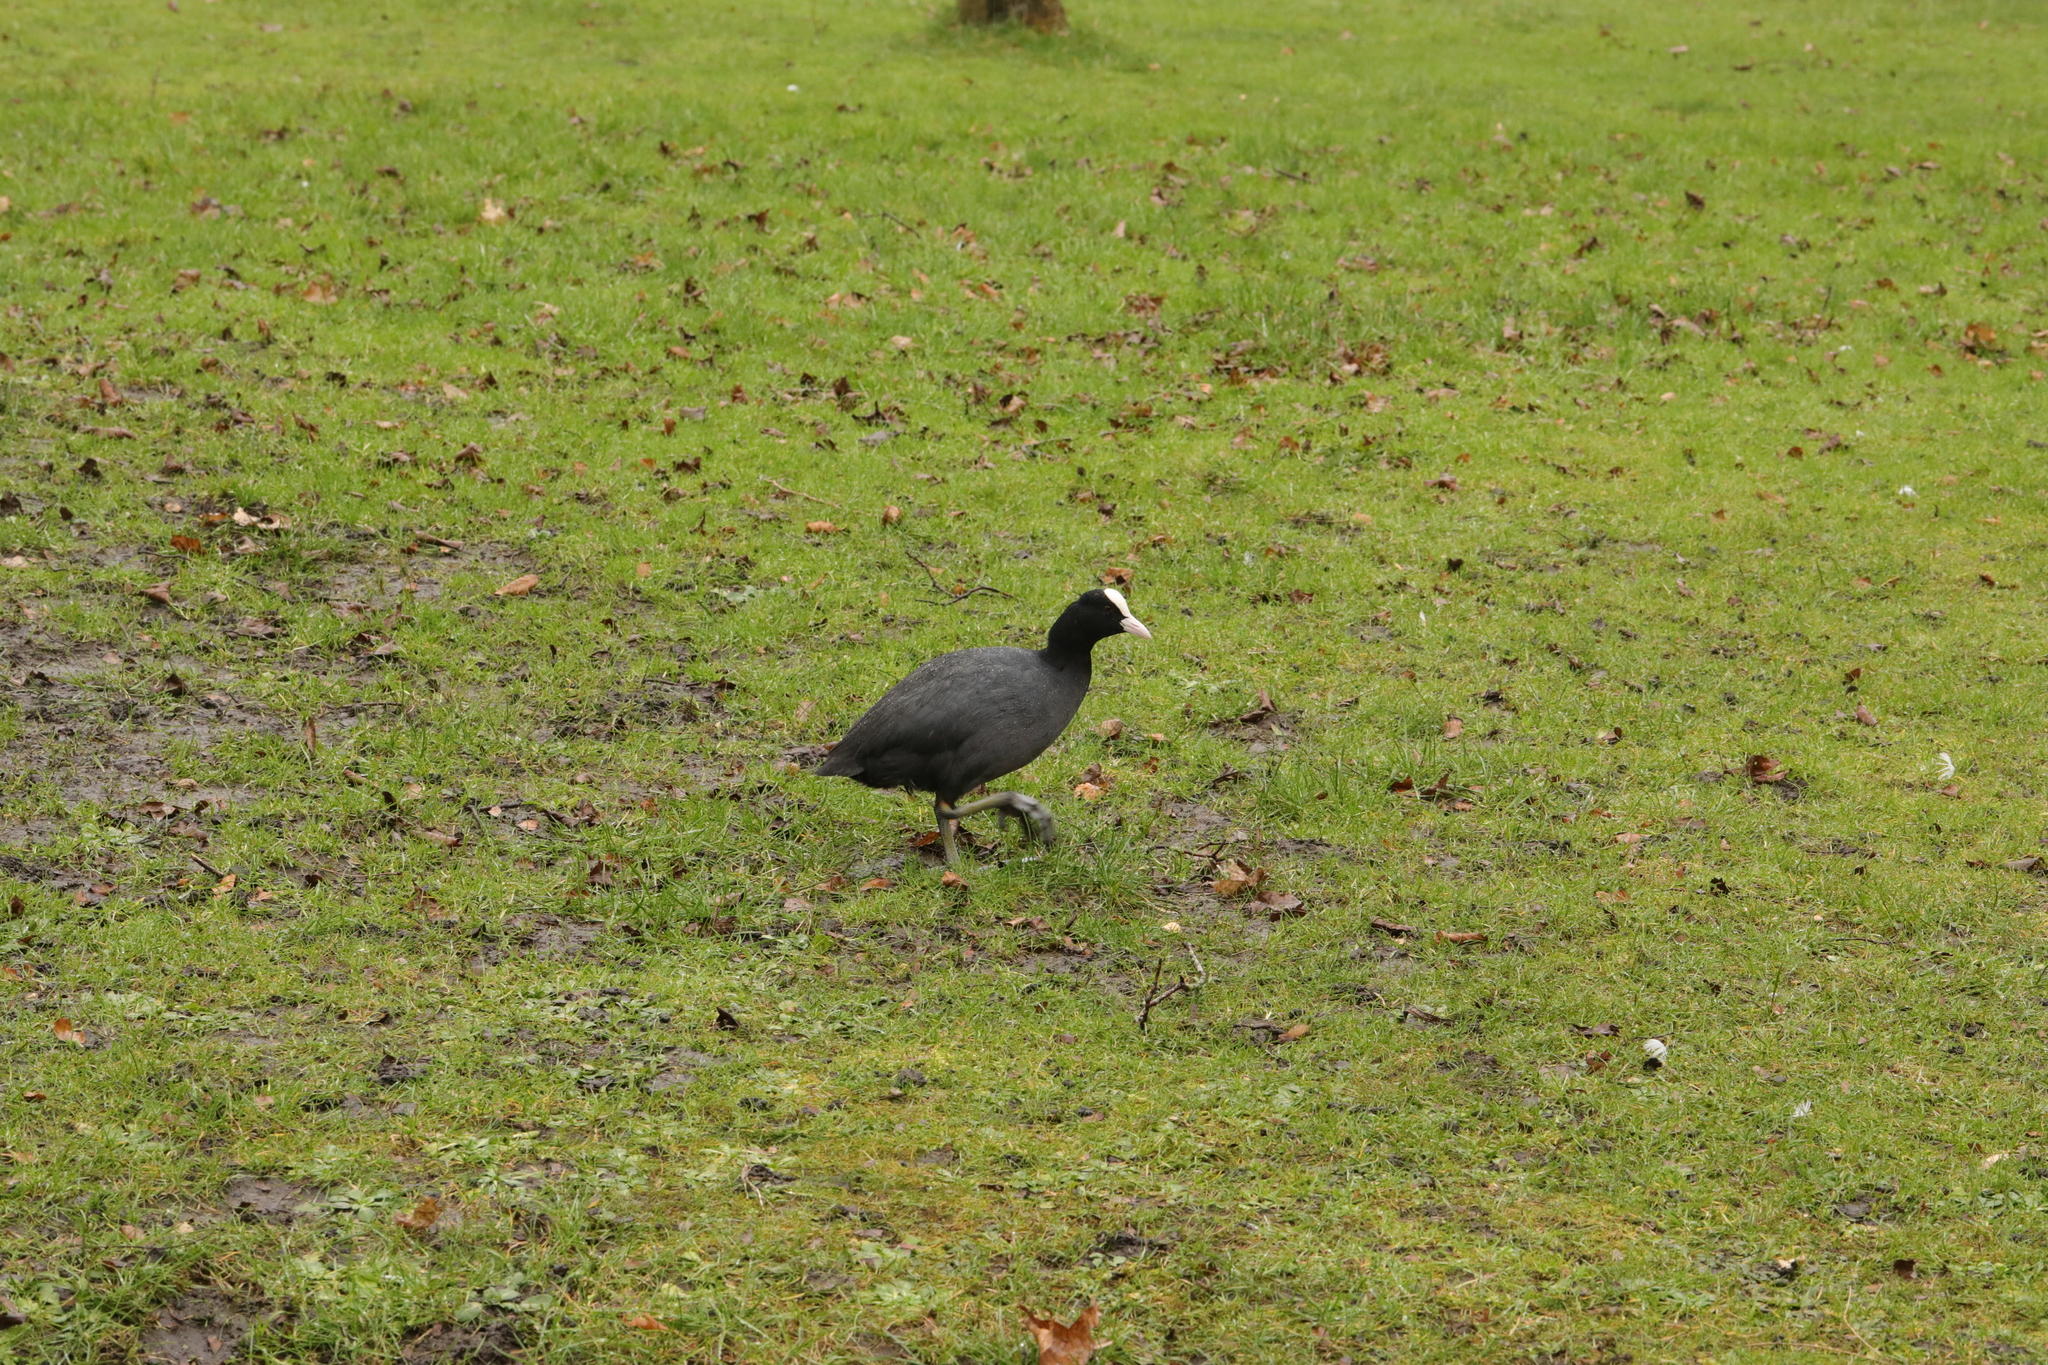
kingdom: Animalia
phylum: Chordata
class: Aves
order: Gruiformes
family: Rallidae
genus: Fulica
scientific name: Fulica atra
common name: Eurasian coot
